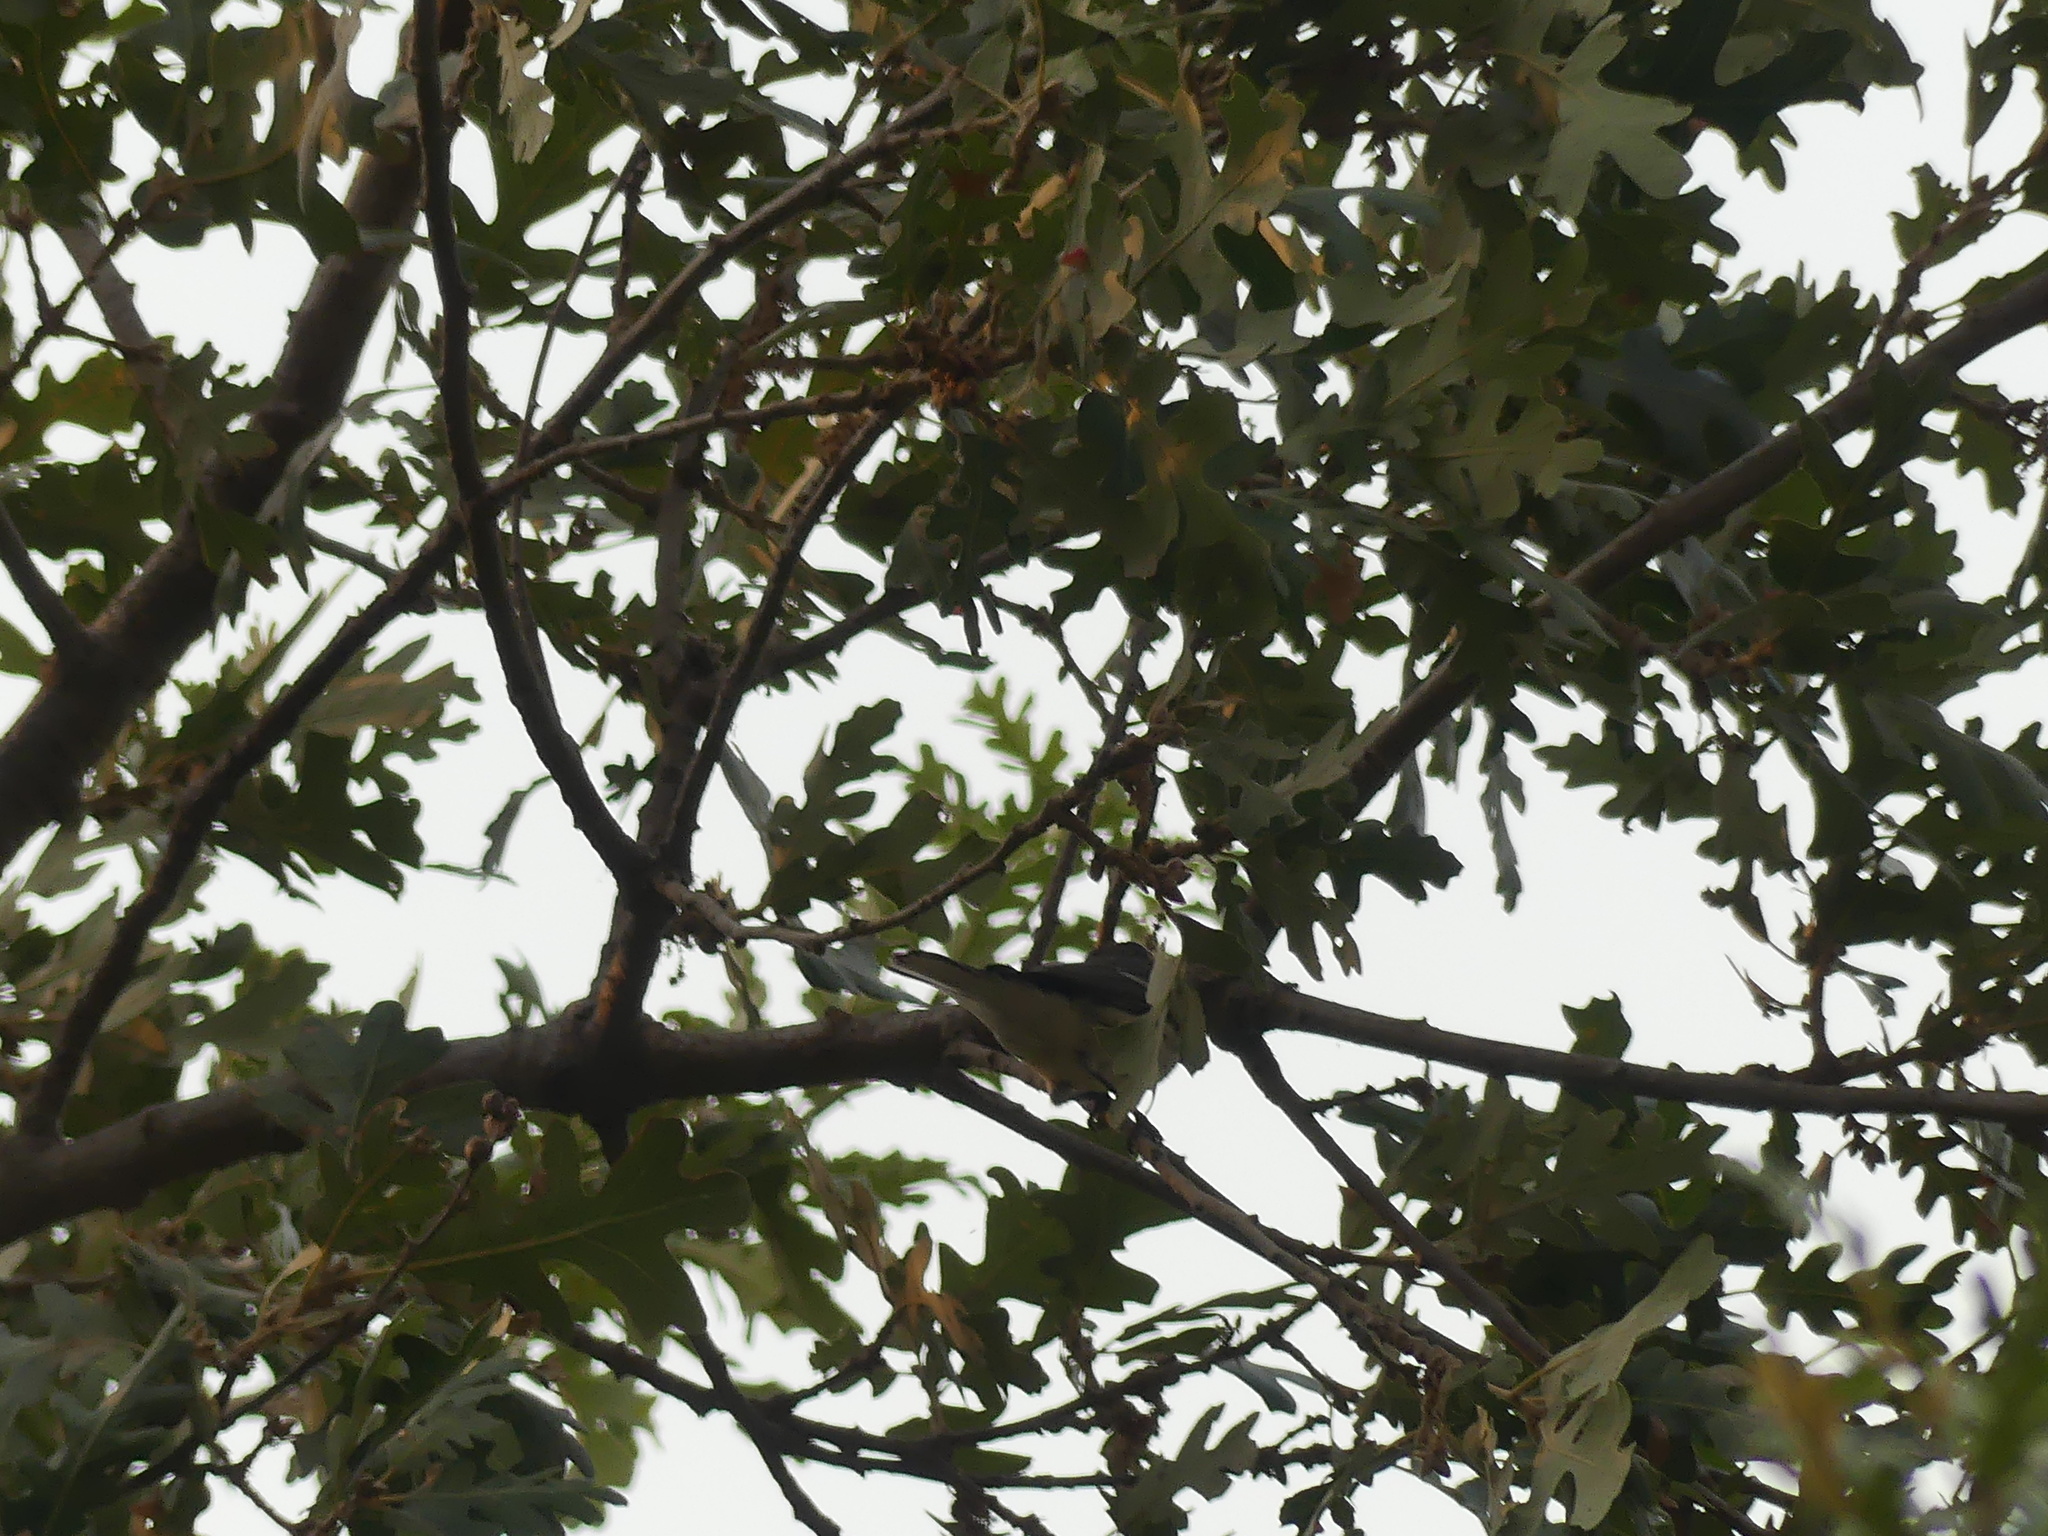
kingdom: Animalia
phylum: Chordata
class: Aves
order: Passeriformes
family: Parulidae
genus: Setophaga
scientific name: Setophaga nigrescens
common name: Black-throated gray warbler
